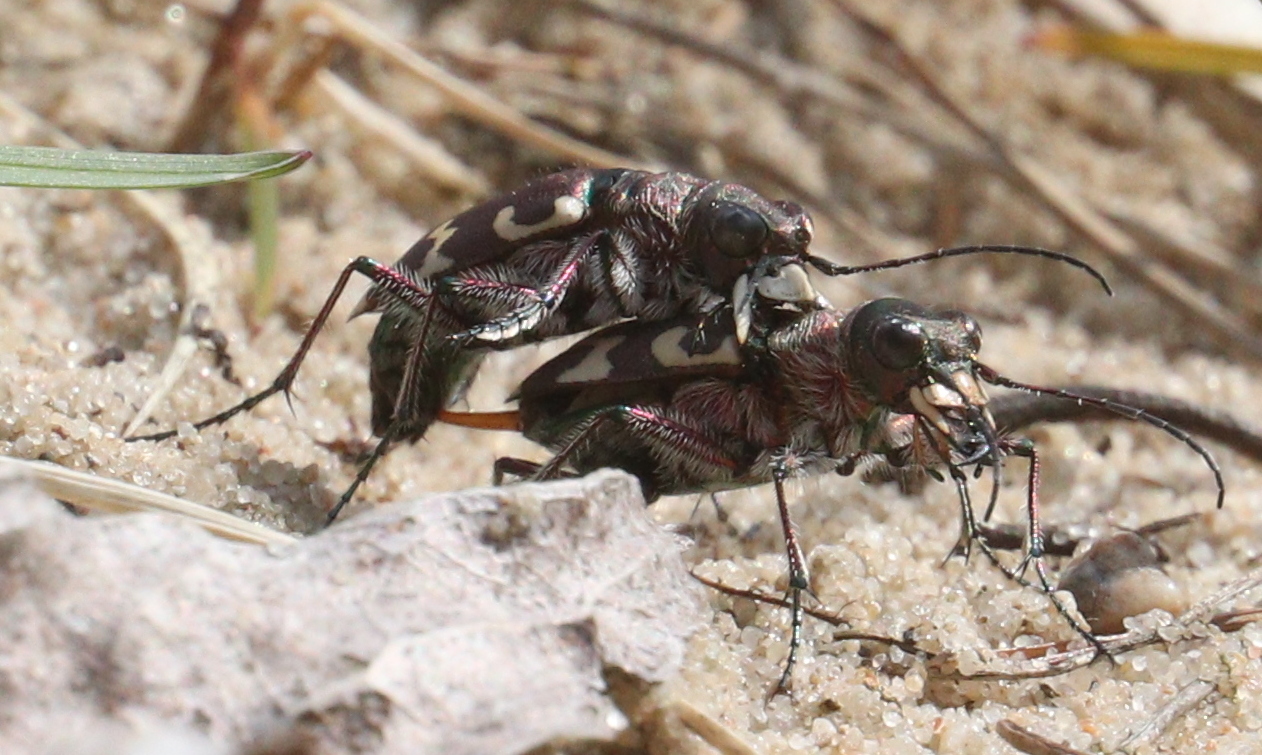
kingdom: Animalia
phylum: Arthropoda
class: Insecta
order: Coleoptera
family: Carabidae
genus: Cicindela
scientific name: Cicindela hybrida
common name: Northern dune tiger beetle
